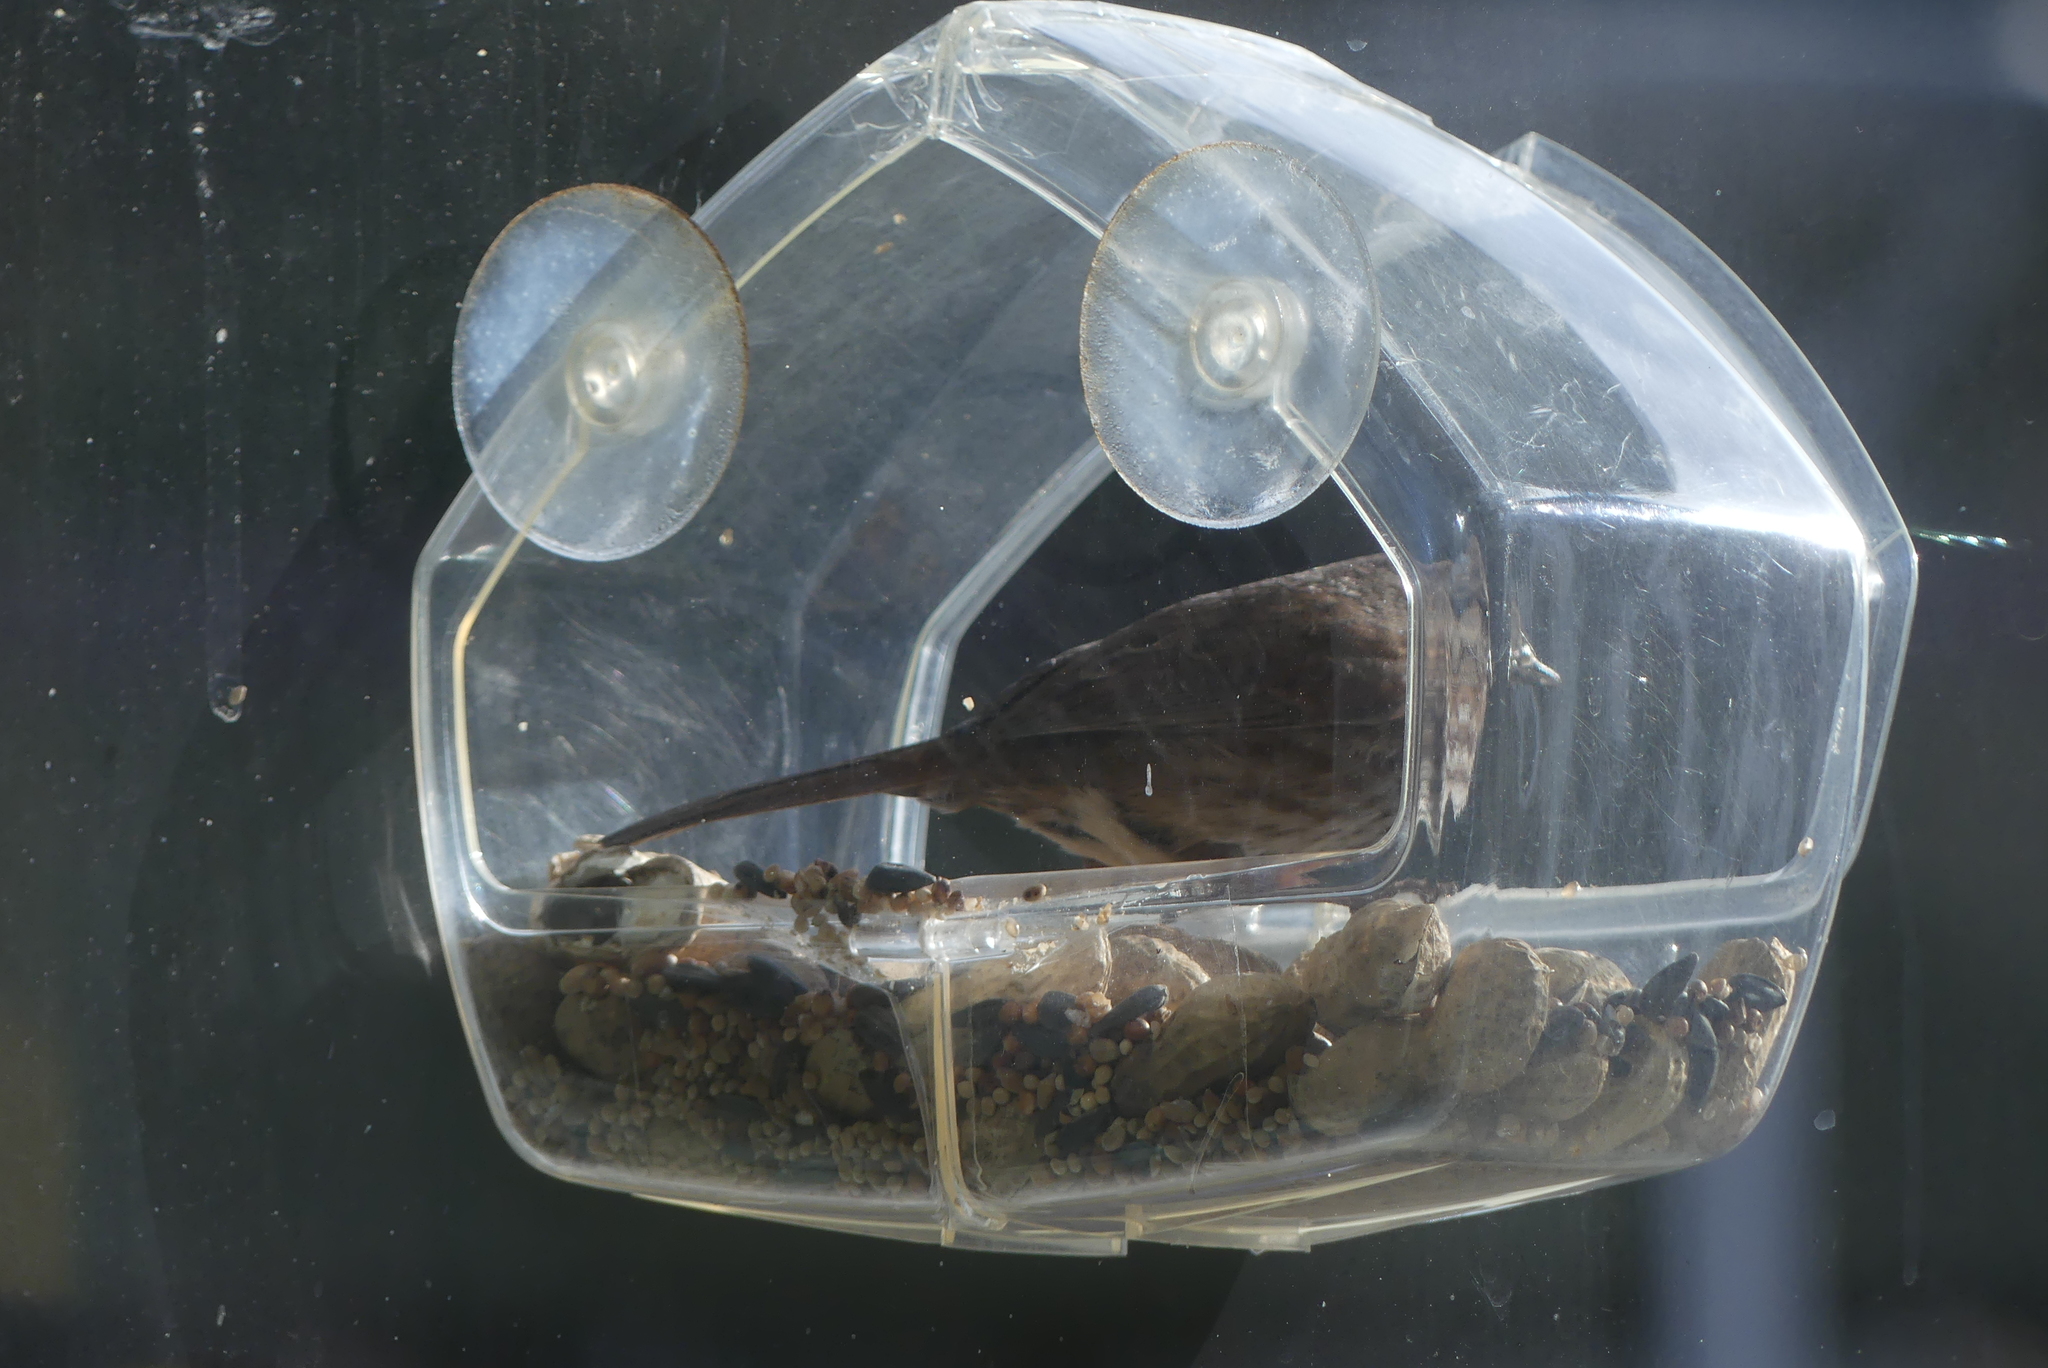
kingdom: Animalia
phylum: Chordata
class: Aves
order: Passeriformes
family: Passerellidae
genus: Melospiza
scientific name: Melospiza melodia
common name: Song sparrow
